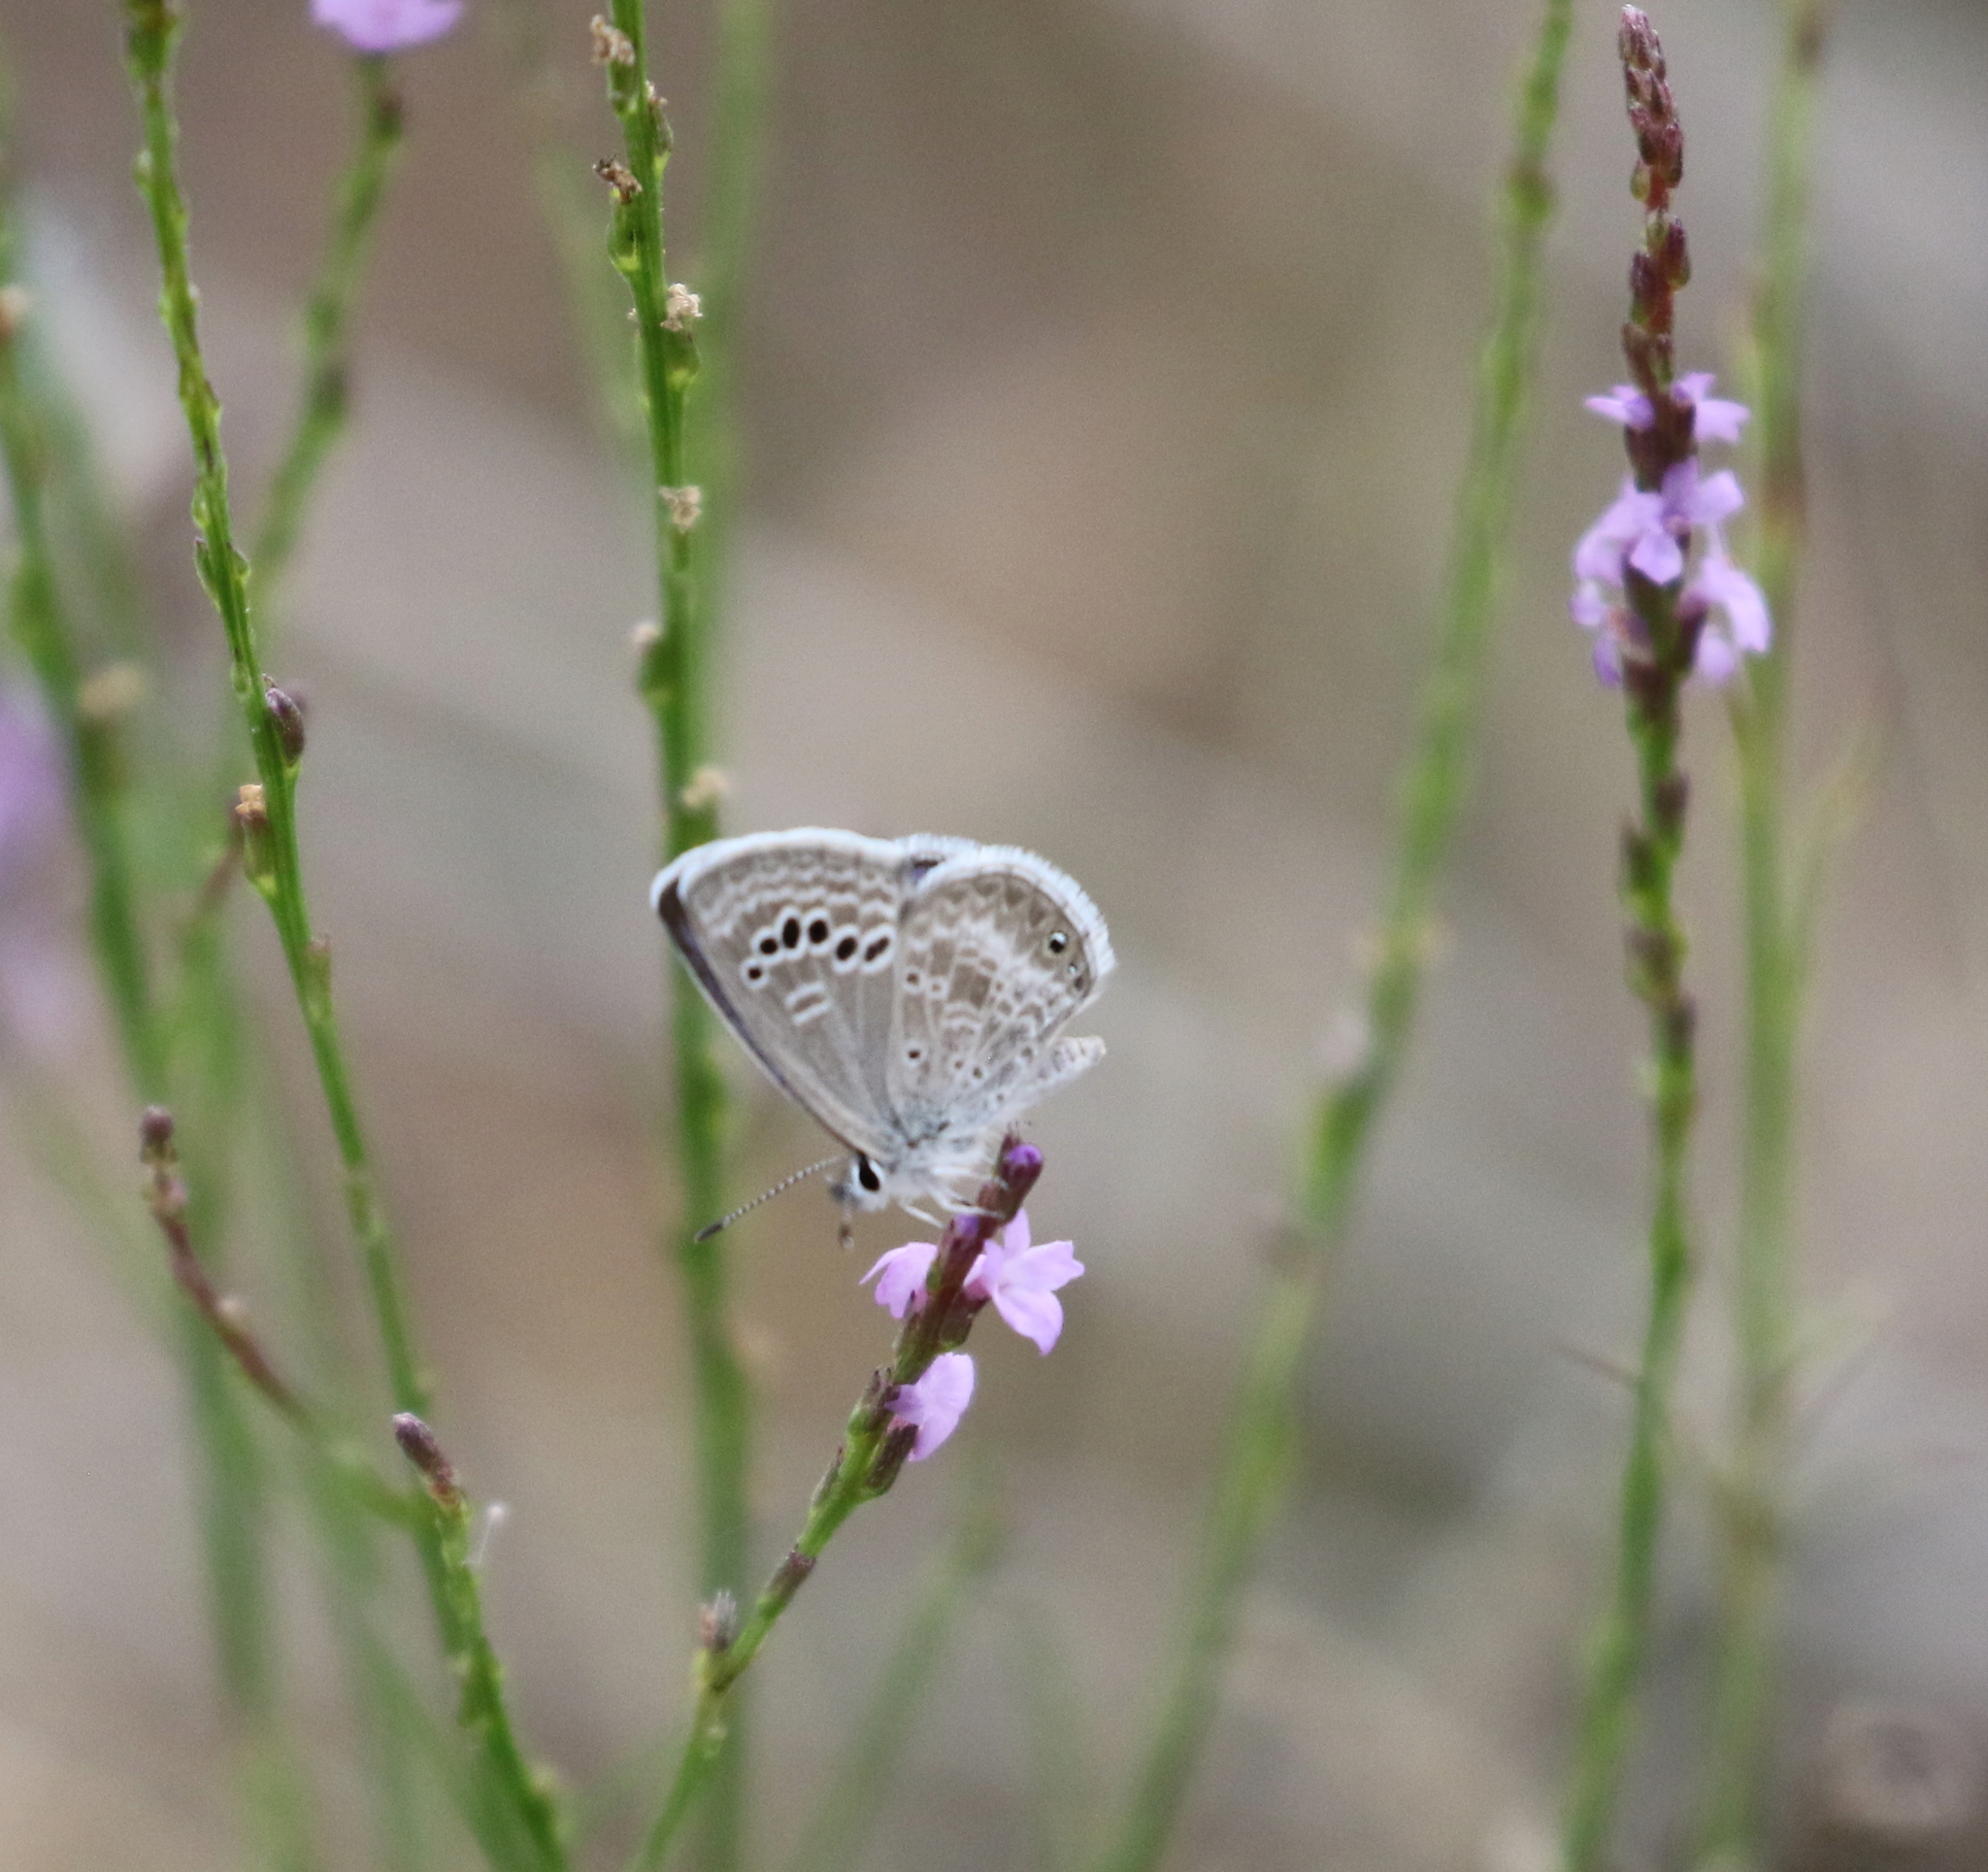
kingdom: Animalia
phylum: Arthropoda
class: Insecta
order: Lepidoptera
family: Lycaenidae
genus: Echinargus
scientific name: Echinargus isola
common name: Reakirt's blue
